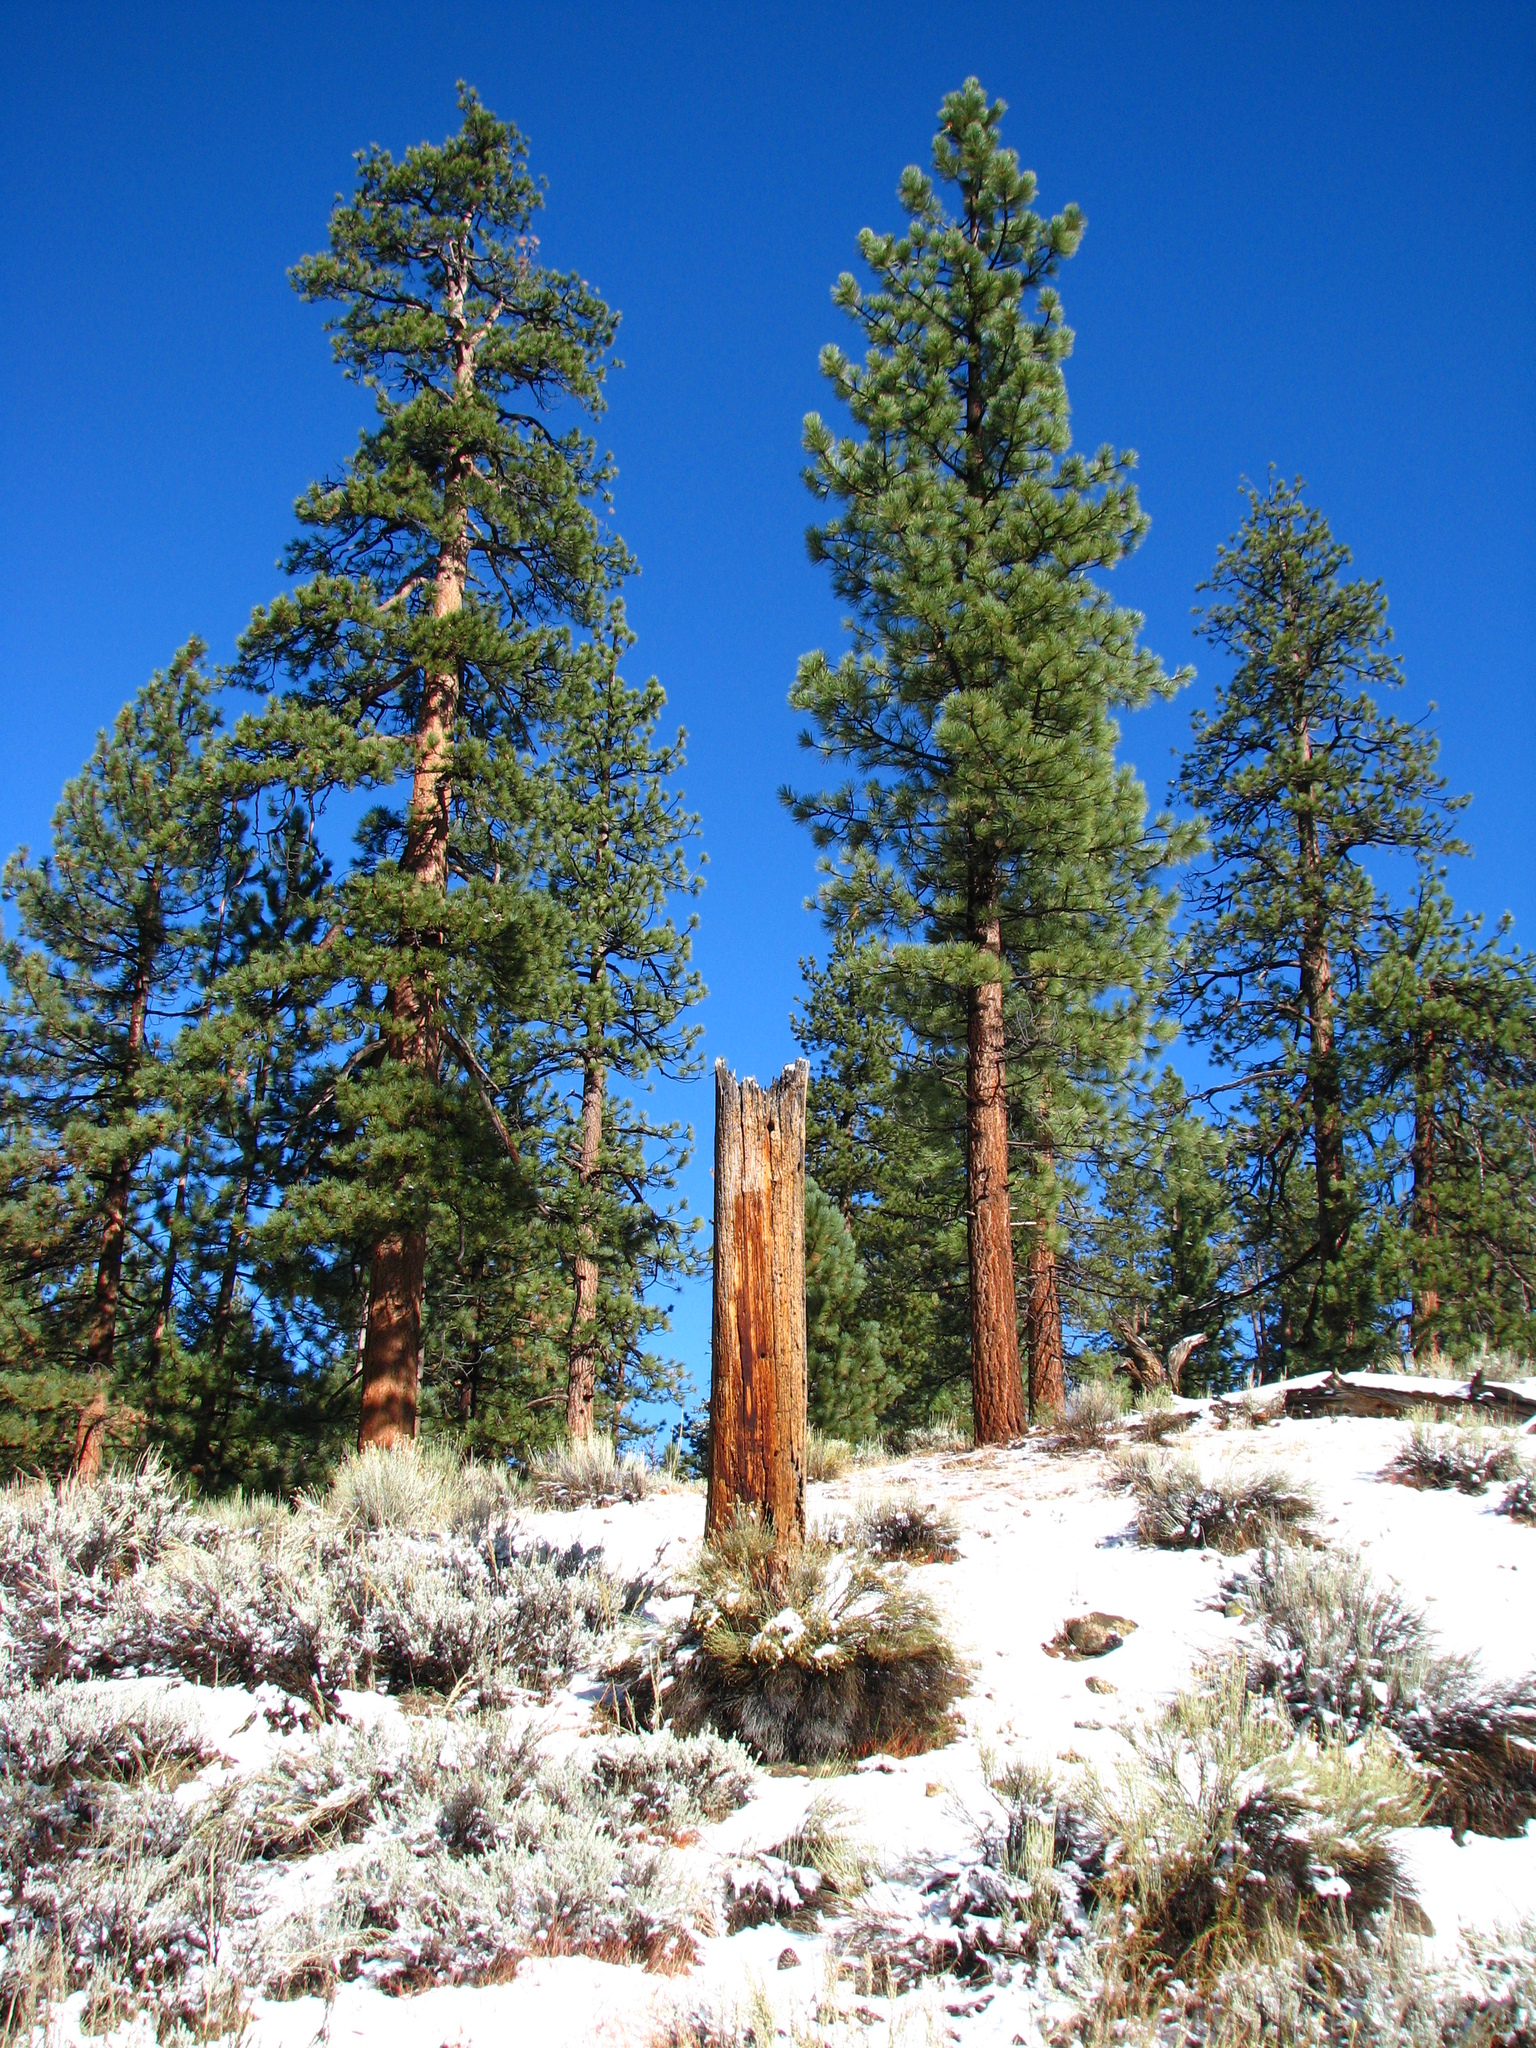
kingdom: Plantae
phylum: Tracheophyta
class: Pinopsida
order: Pinales
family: Pinaceae
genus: Pinus
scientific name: Pinus jeffreyi
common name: Jeffrey pine
